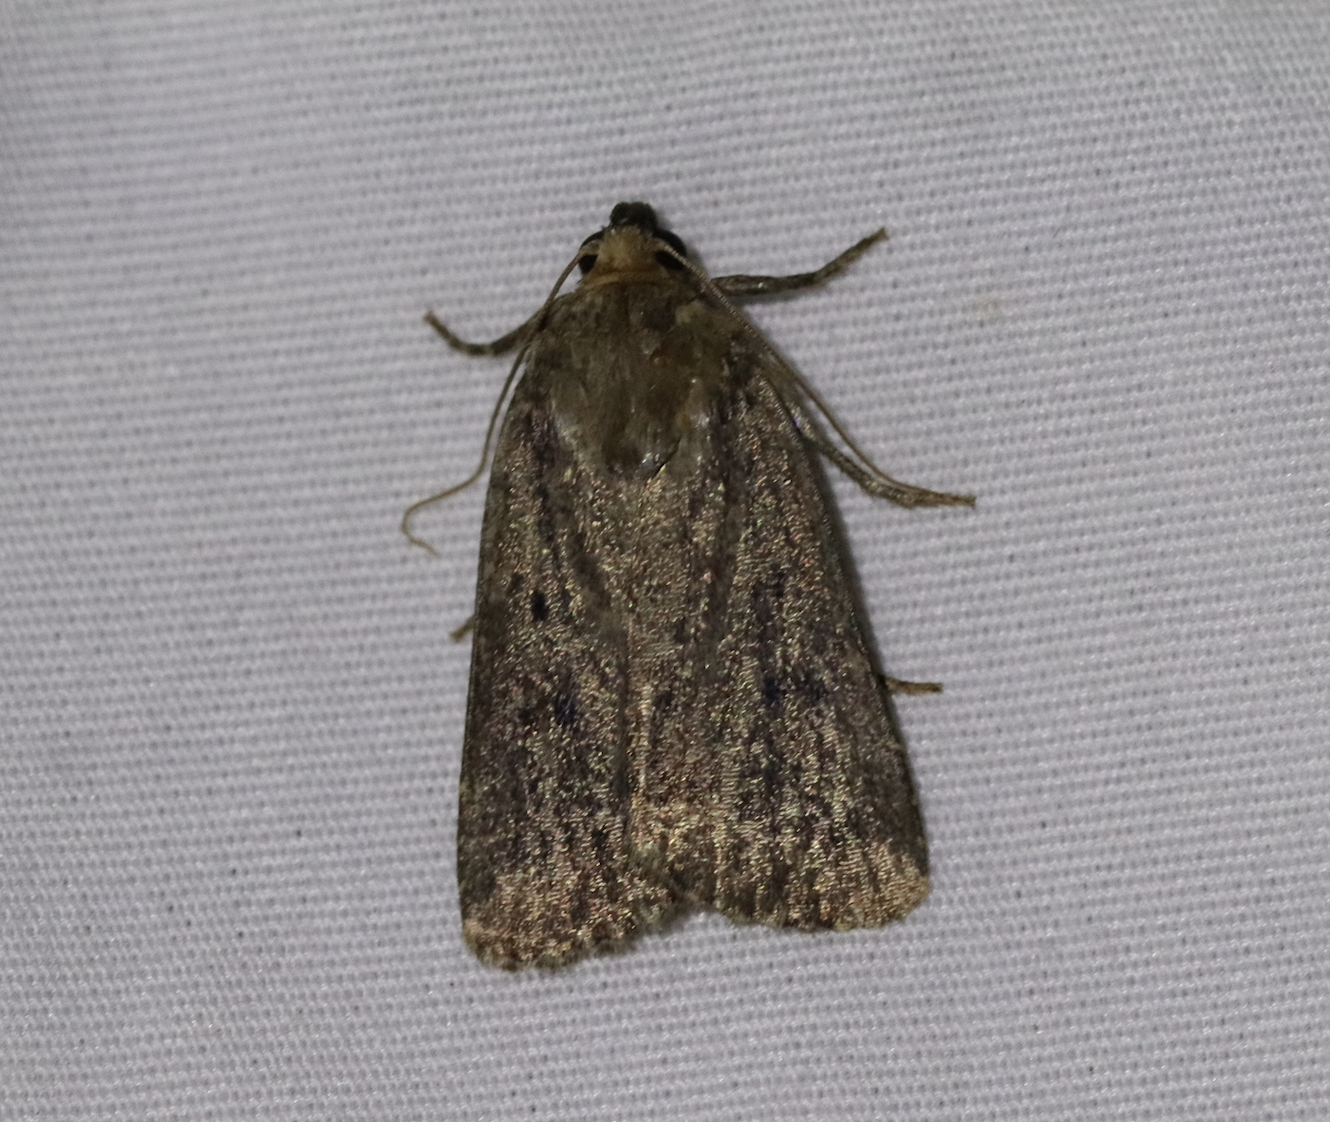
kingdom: Animalia
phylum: Arthropoda
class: Insecta
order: Lepidoptera
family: Noctuidae
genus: Amphipyra
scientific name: Amphipyra tragopoginis
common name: Mouse moth
